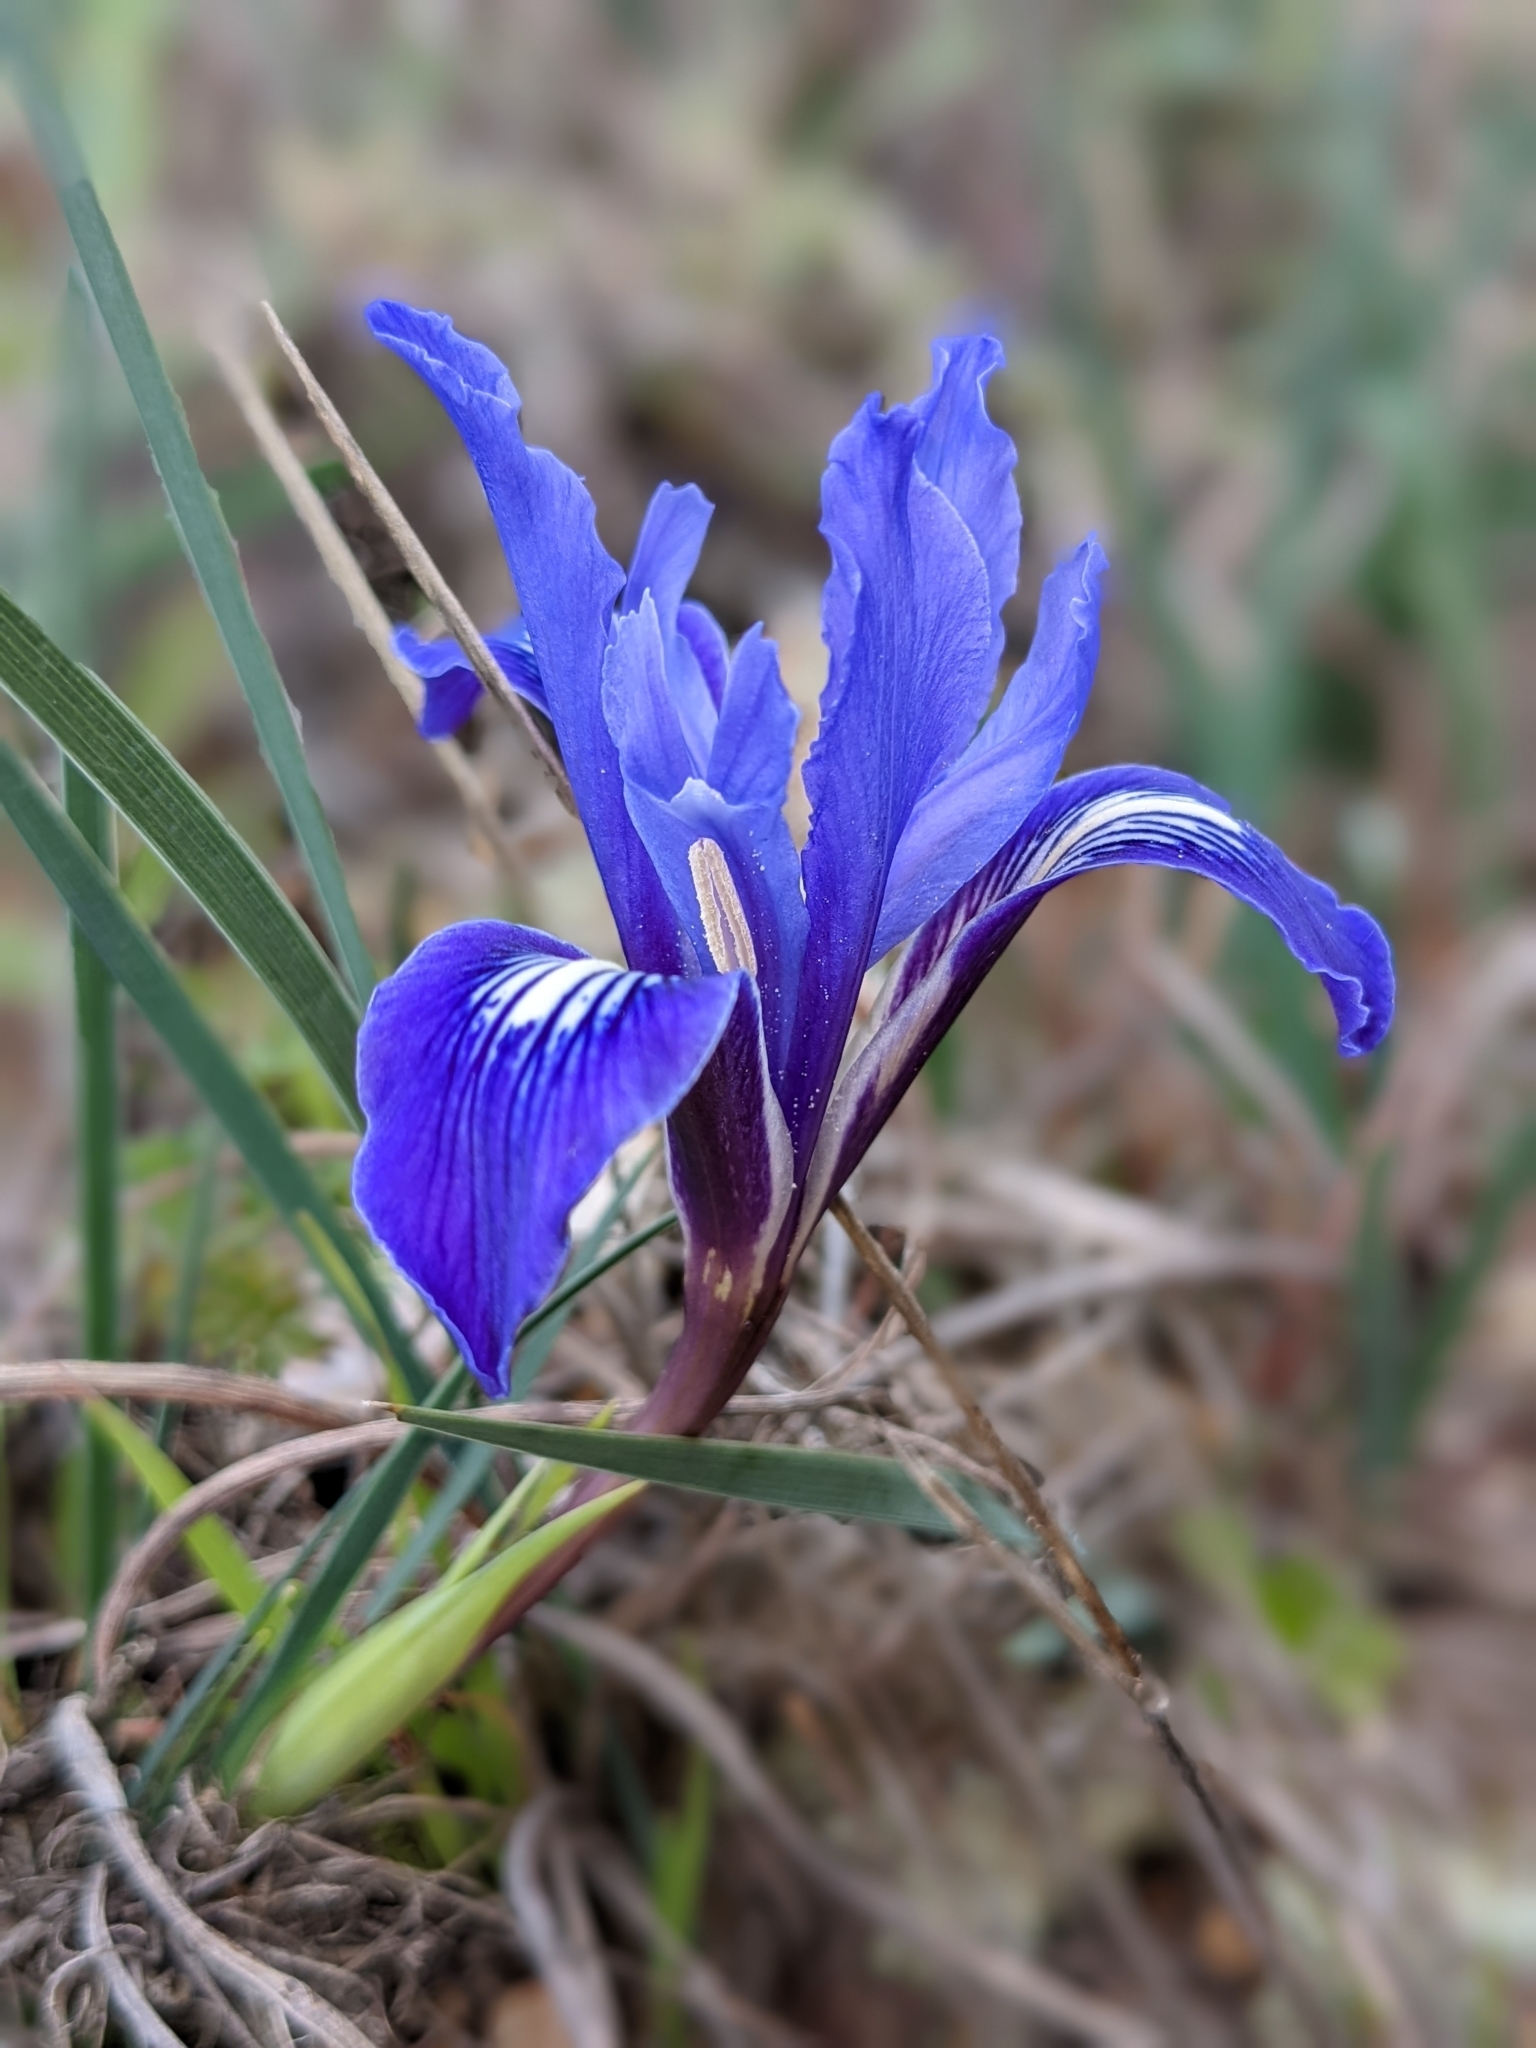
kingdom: Plantae
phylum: Tracheophyta
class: Liliopsida
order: Asparagales
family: Iridaceae
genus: Iris
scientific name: Iris macrosiphon
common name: Ground iris
